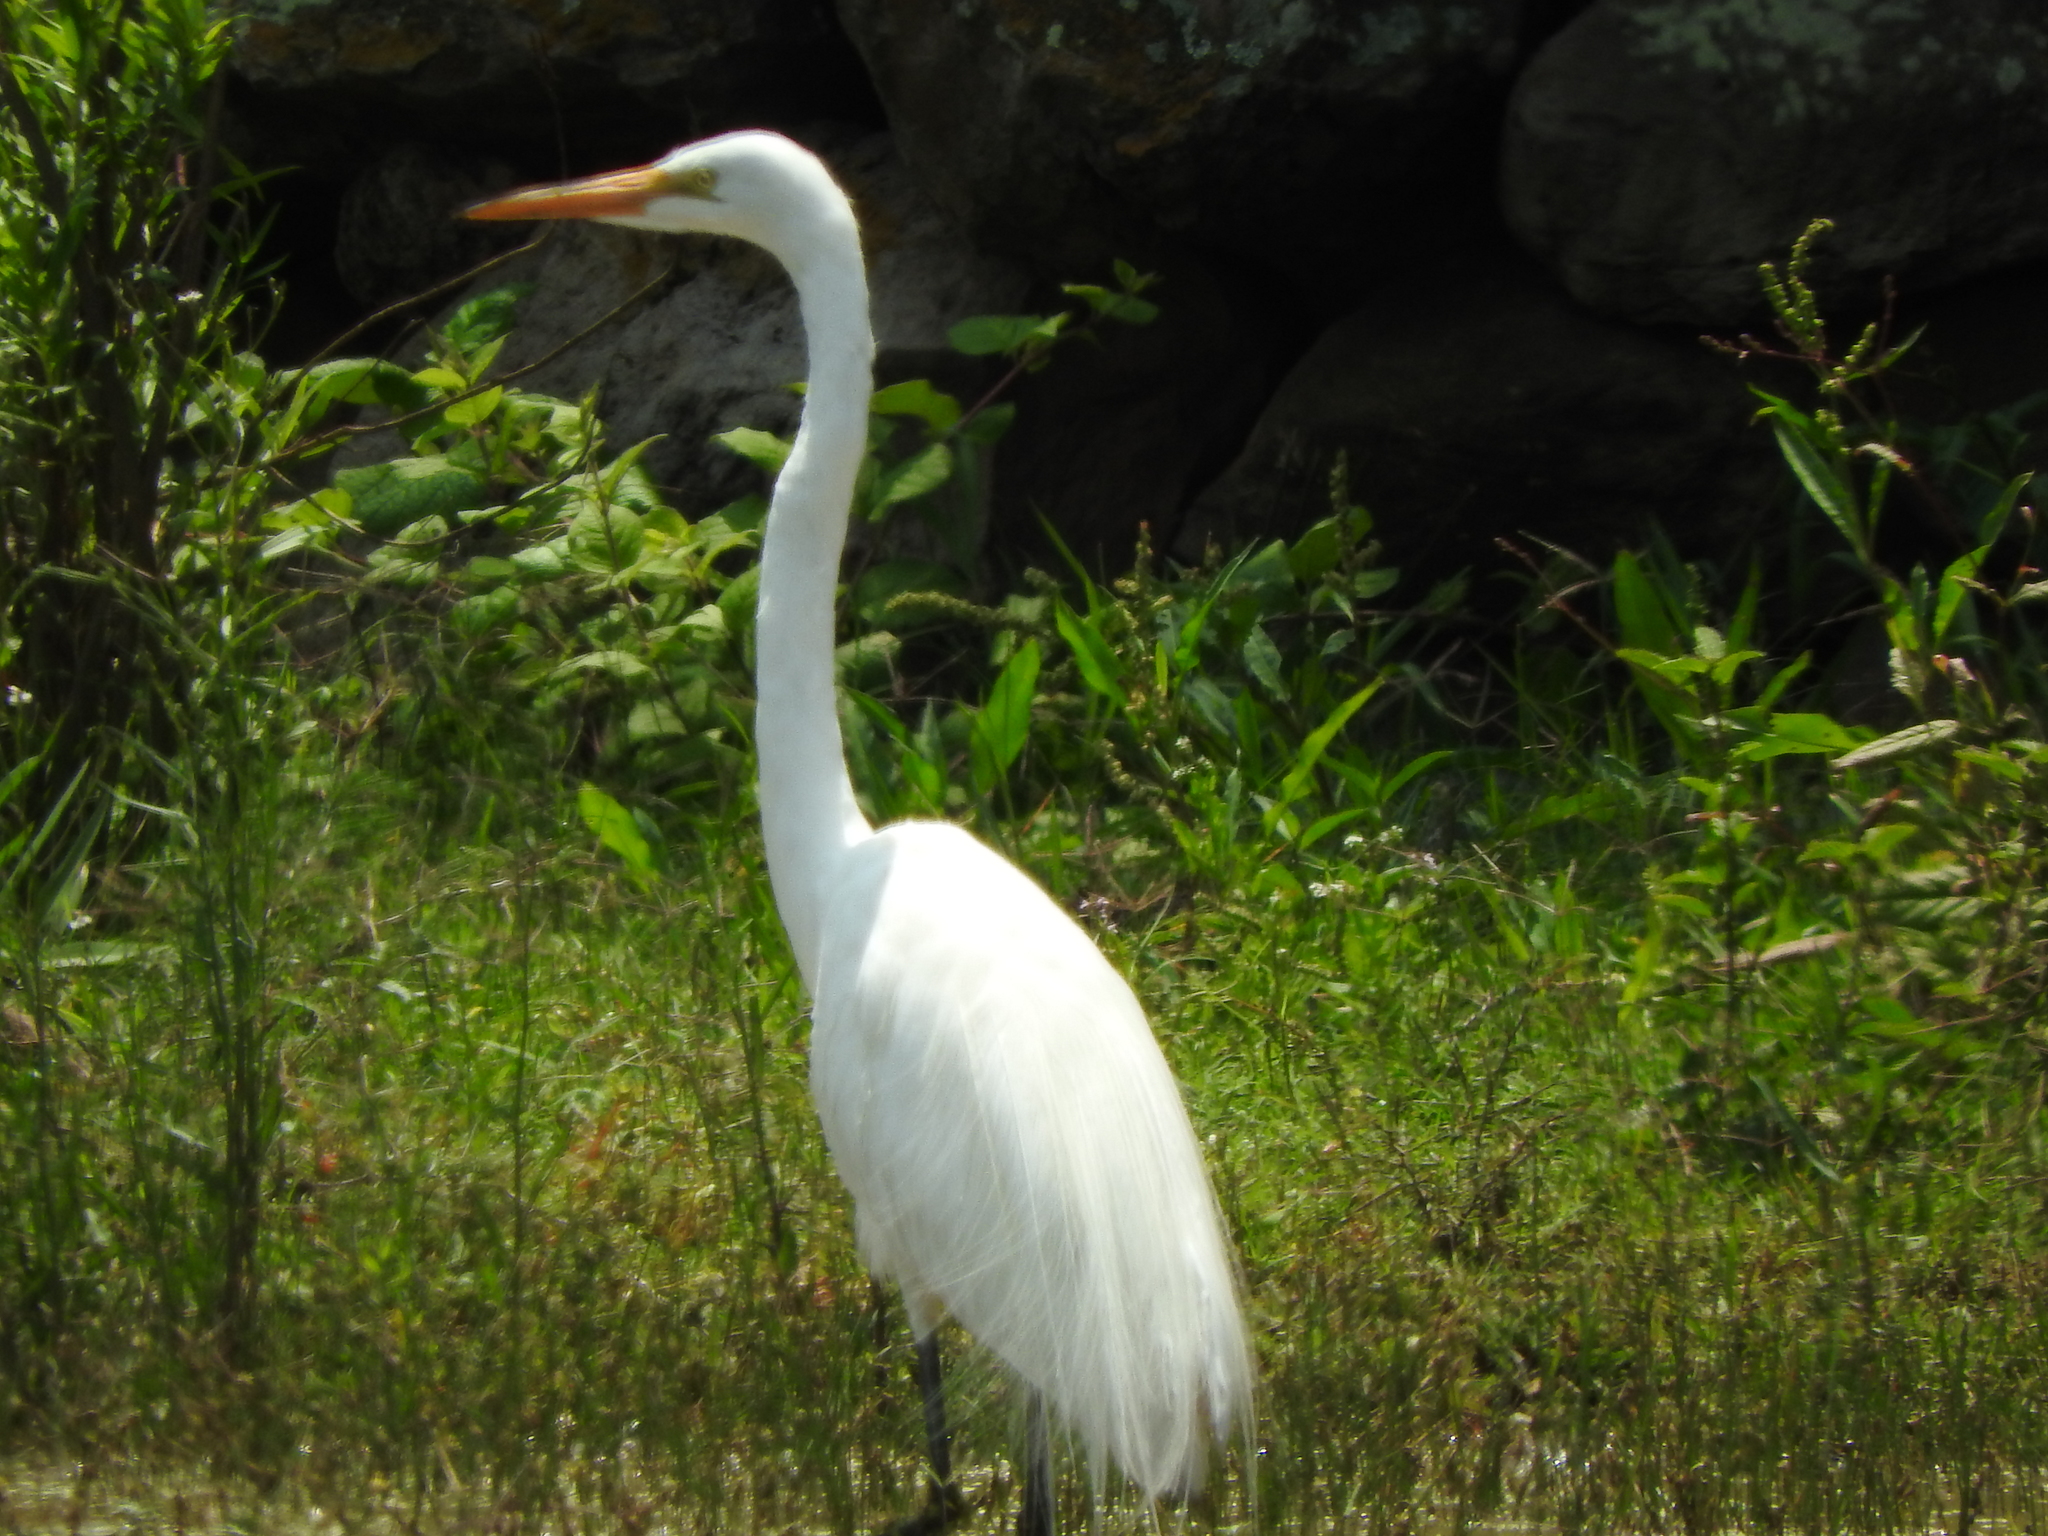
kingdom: Animalia
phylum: Chordata
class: Aves
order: Pelecaniformes
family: Ardeidae
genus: Ardea
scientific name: Ardea alba
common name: Great egret
